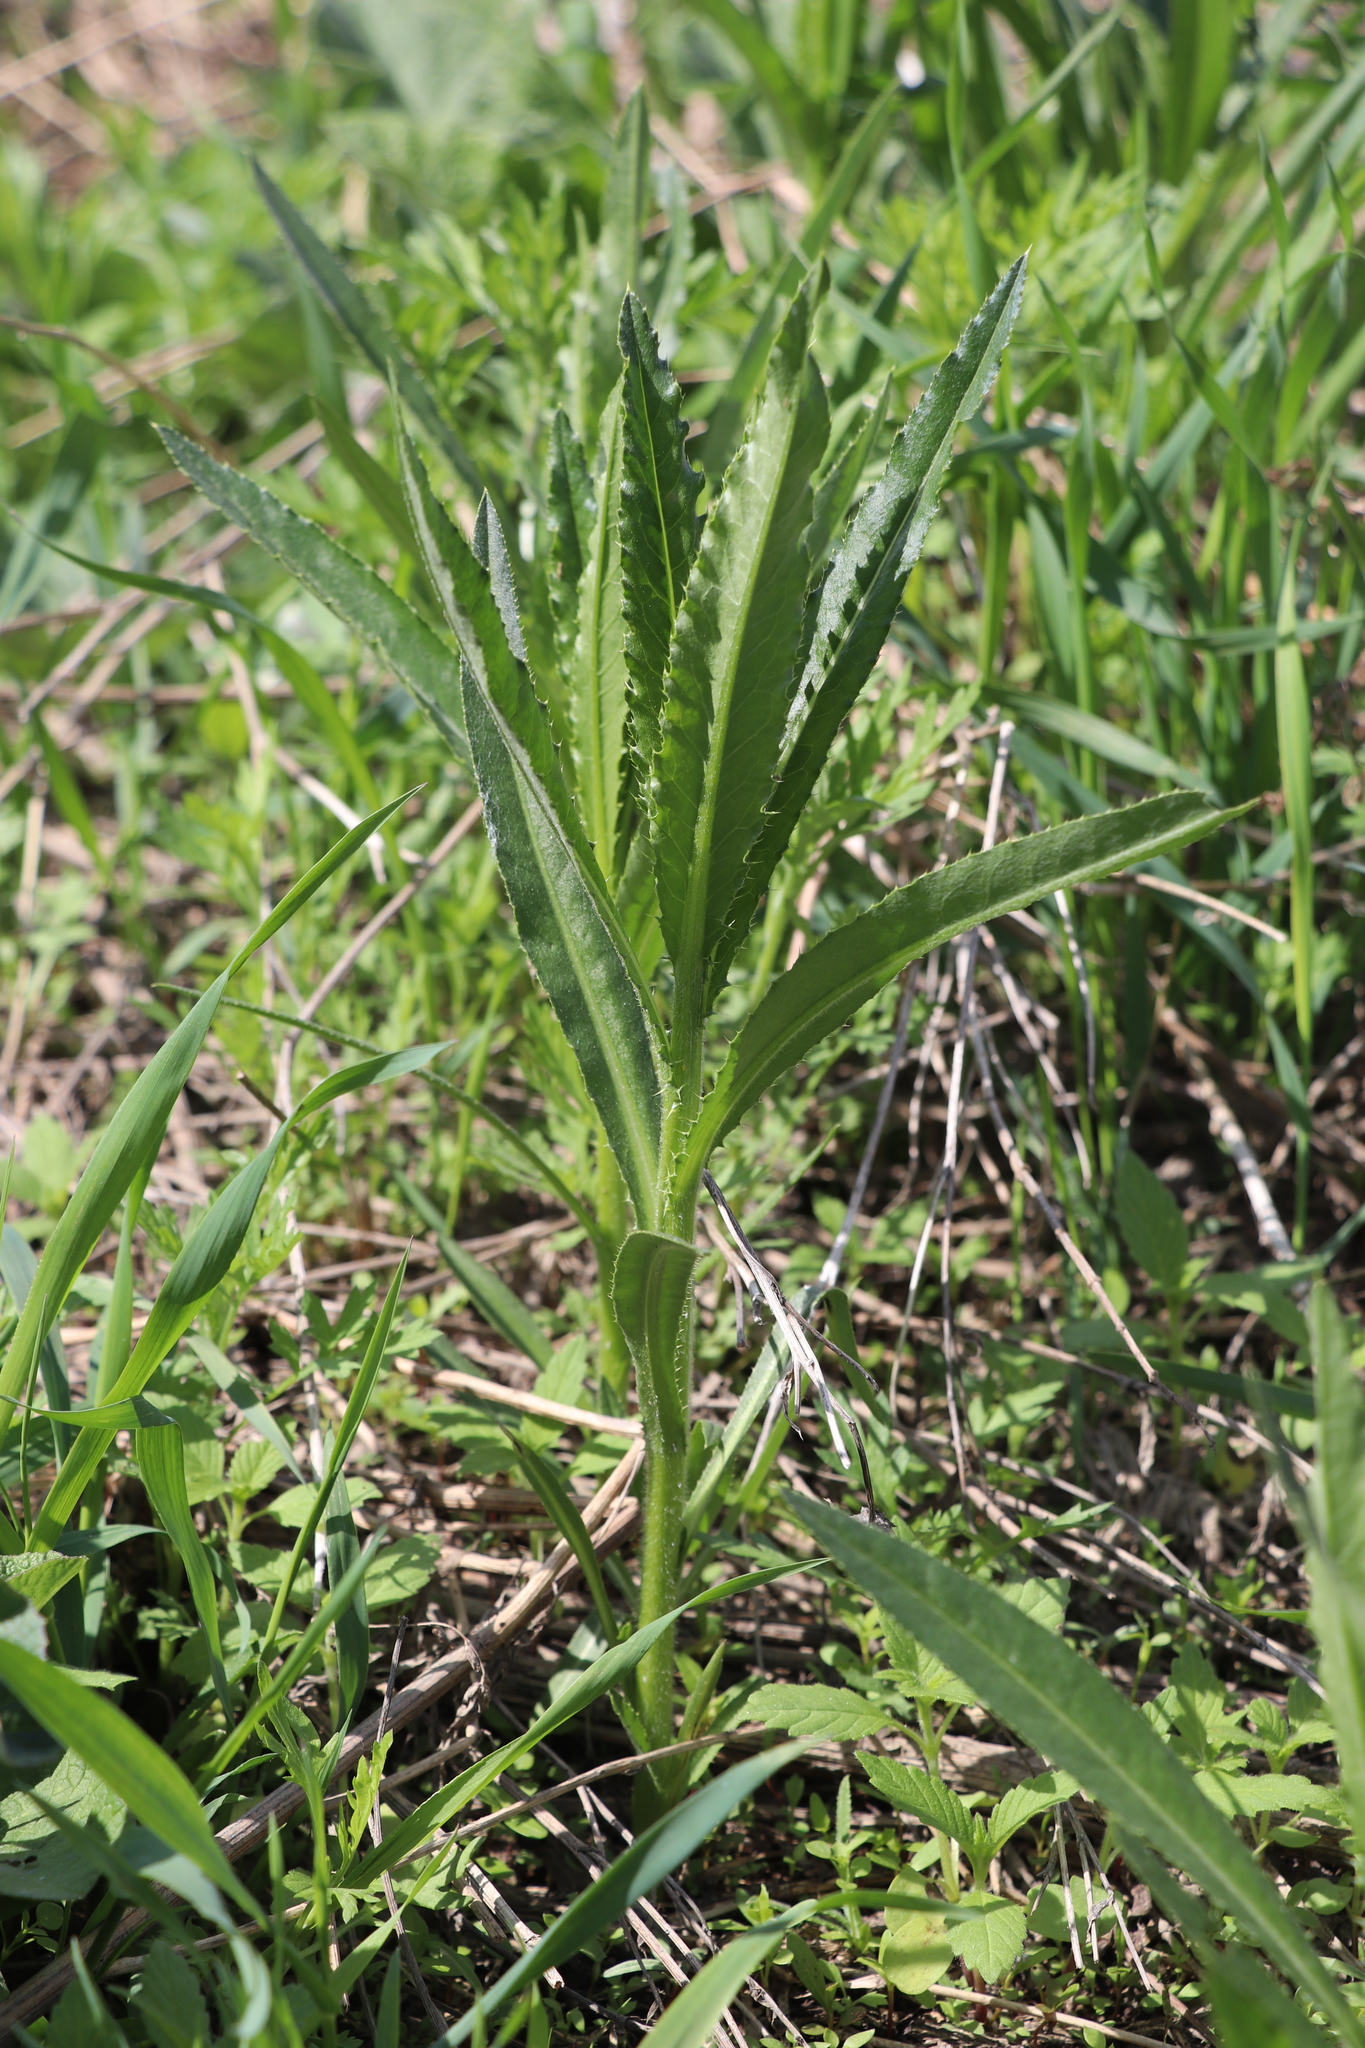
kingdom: Plantae
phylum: Tracheophyta
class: Magnoliopsida
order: Asterales
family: Asteraceae
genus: Cirsium
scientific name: Cirsium arvense
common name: Creeping thistle
